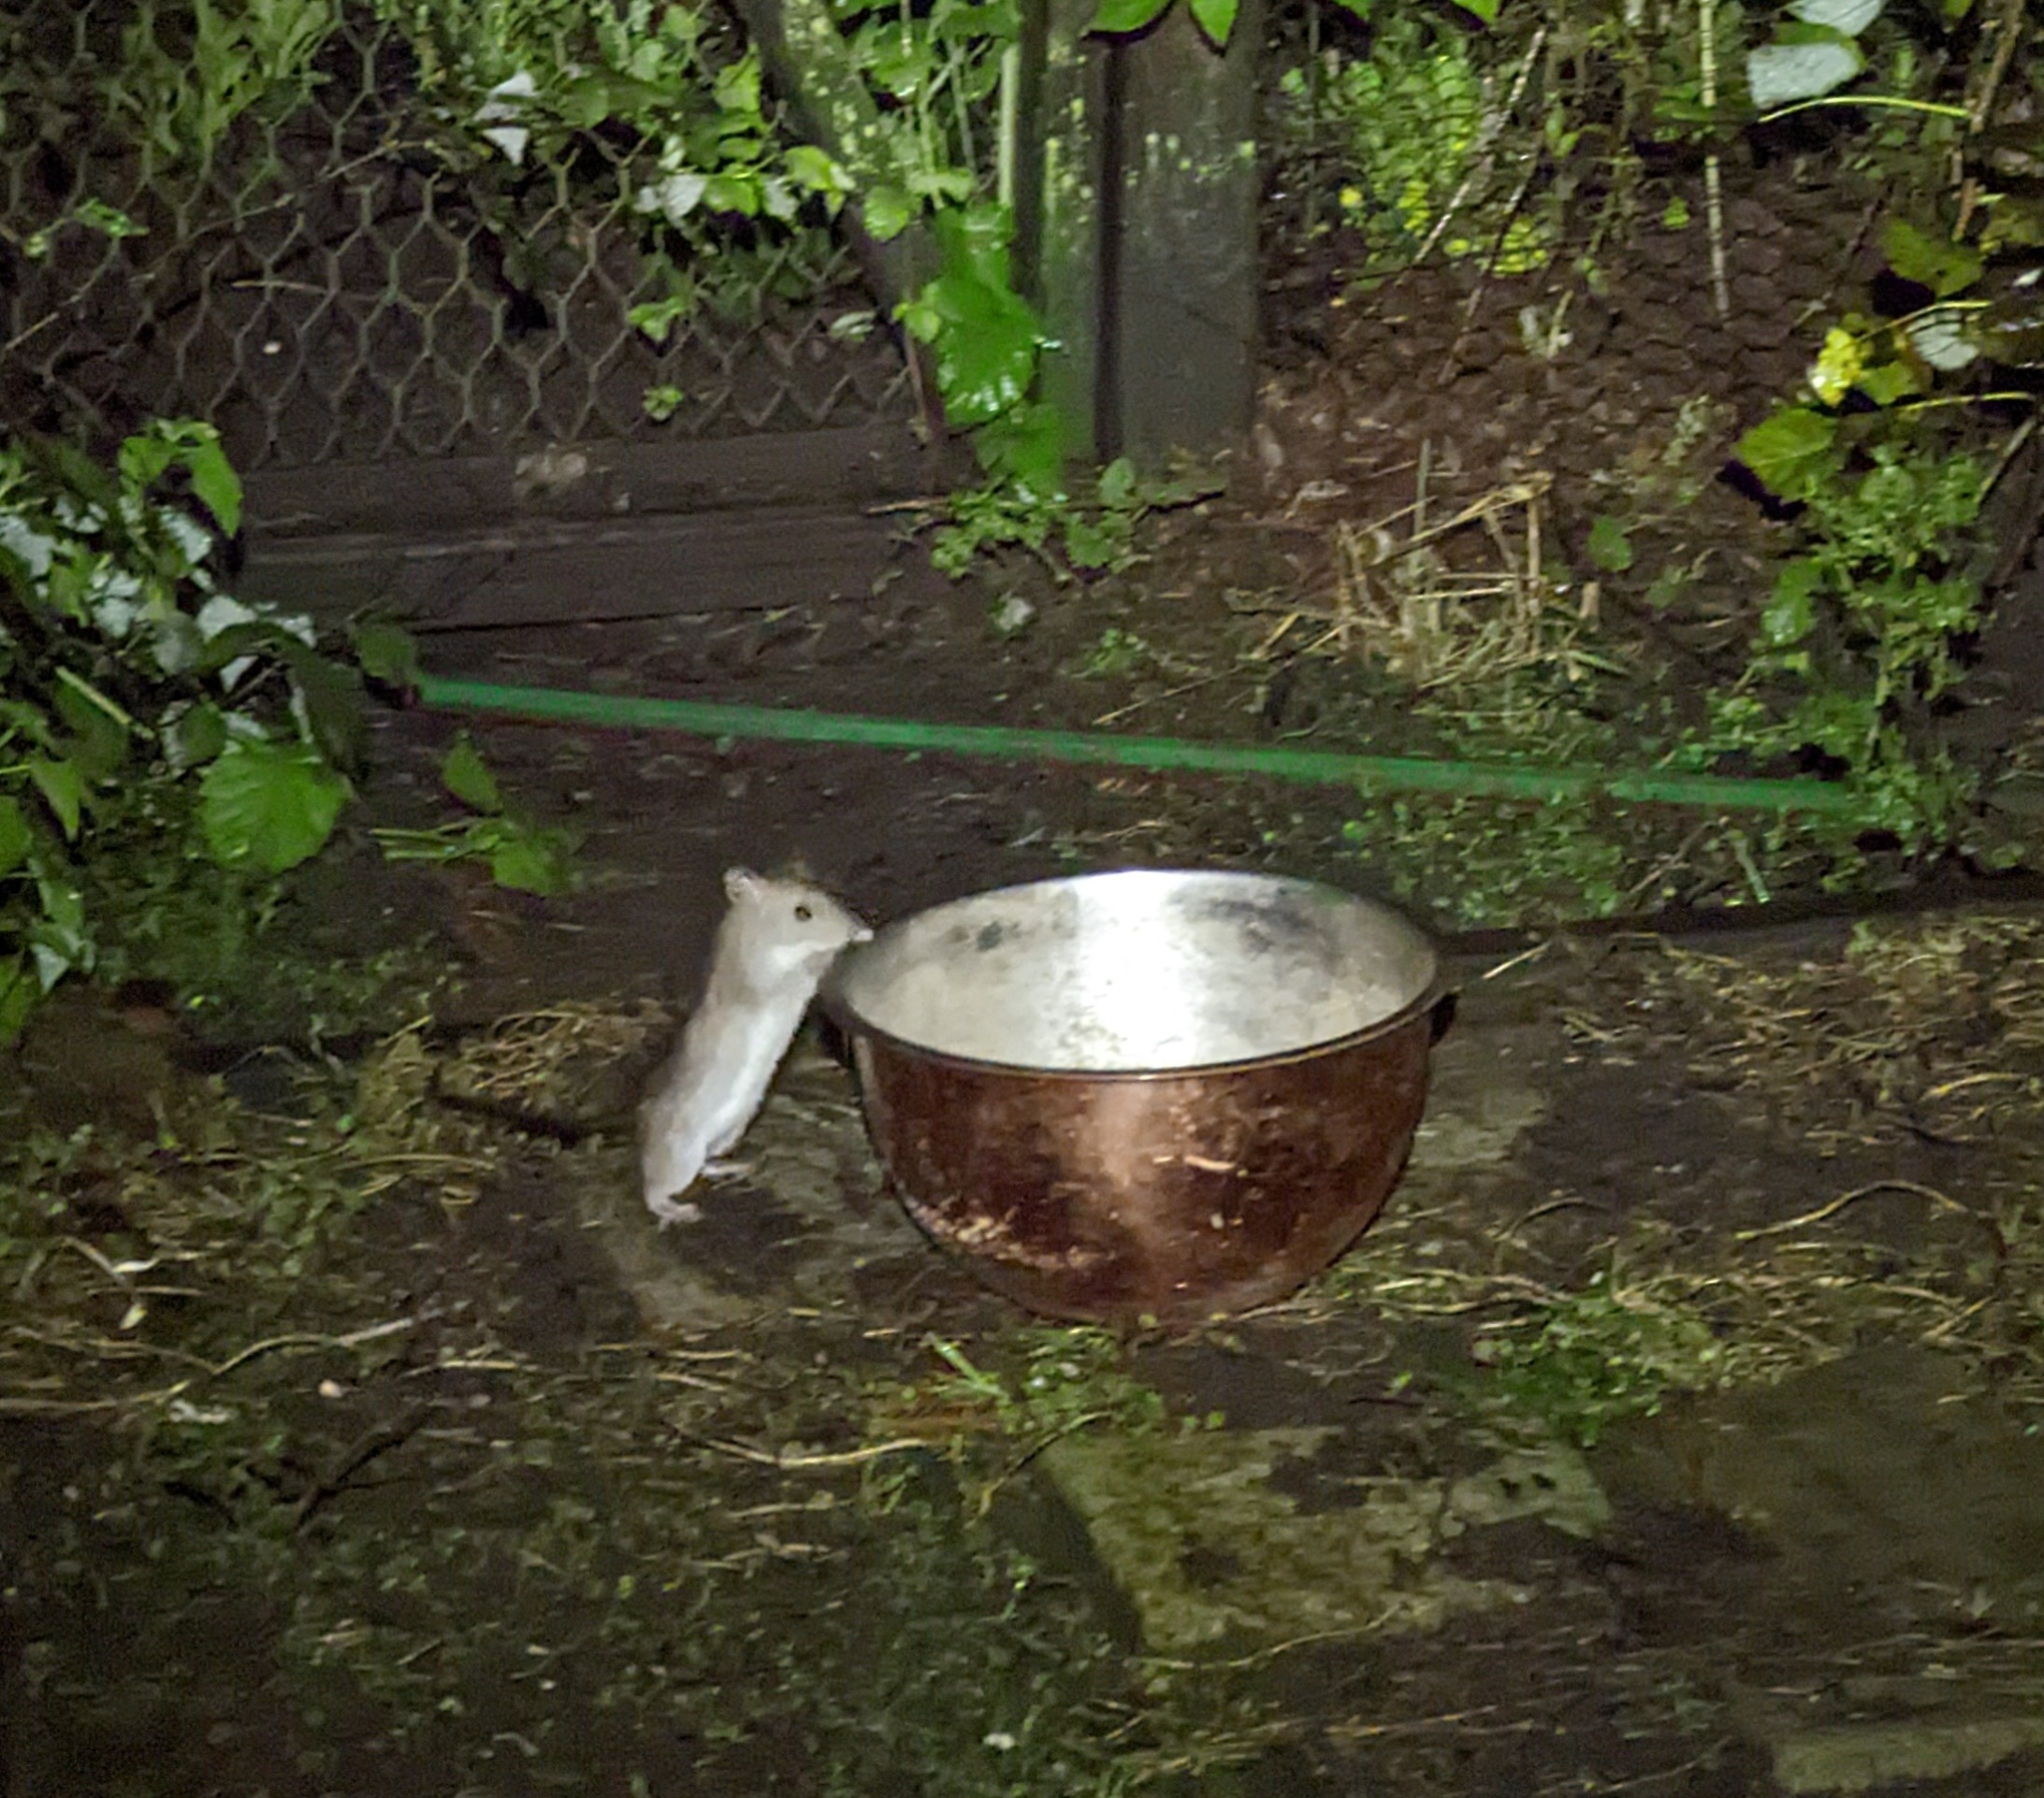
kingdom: Animalia
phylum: Chordata
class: Mammalia
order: Rodentia
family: Muridae
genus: Rattus
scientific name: Rattus rattus
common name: Black rat
